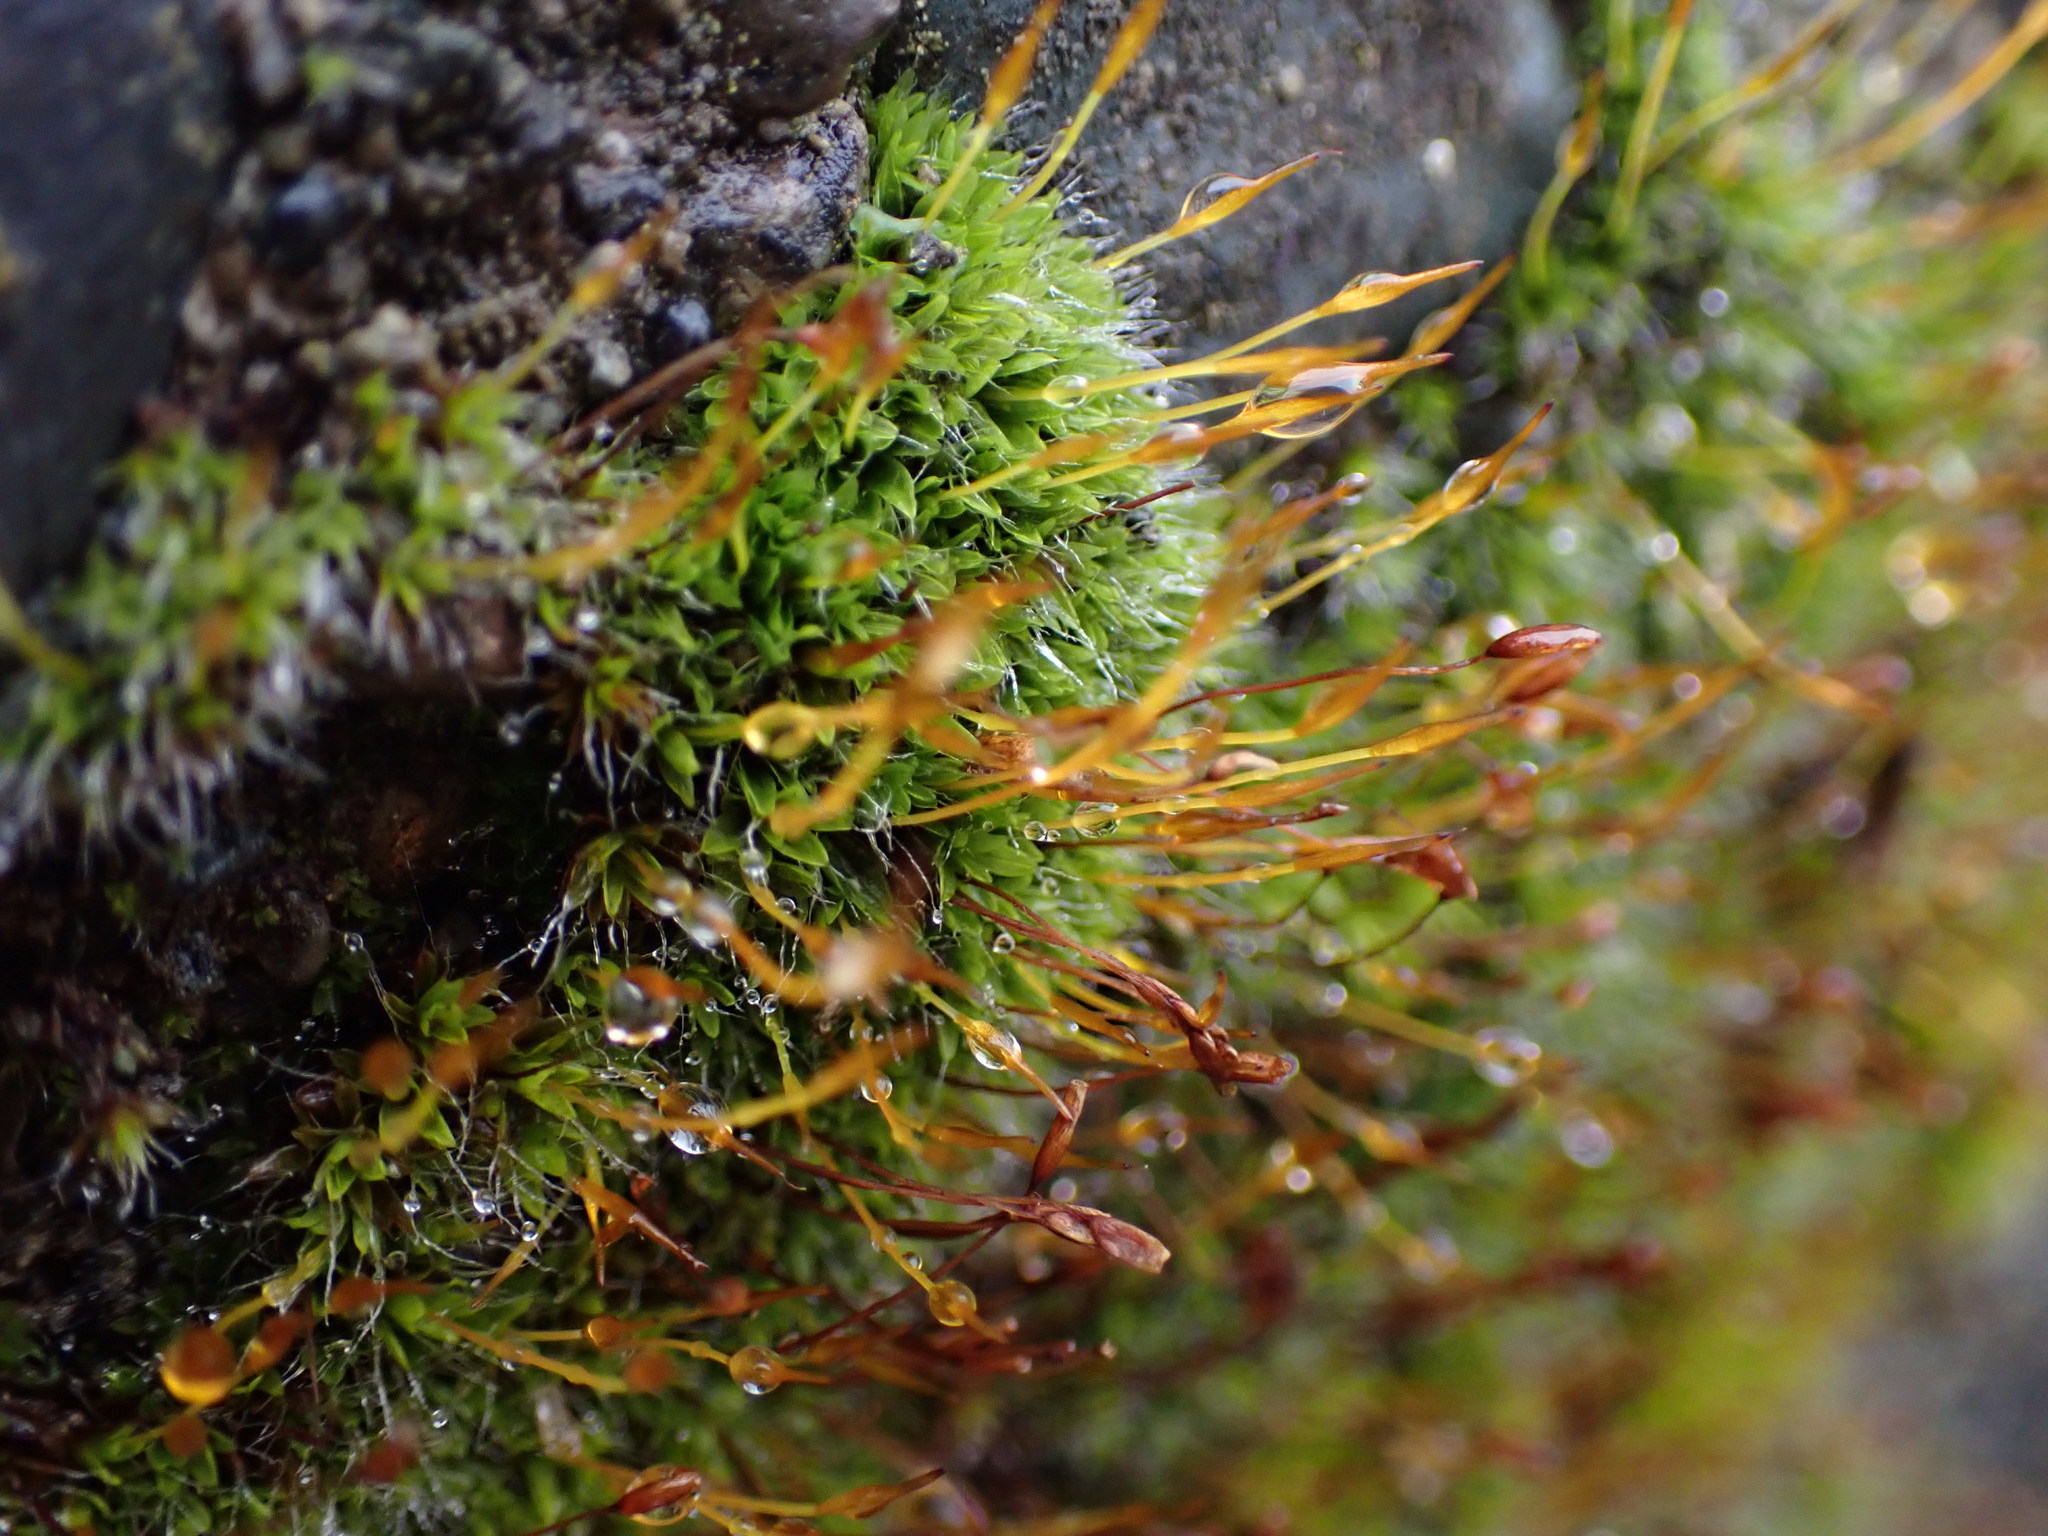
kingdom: Plantae
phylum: Bryophyta
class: Bryopsida
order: Pottiales
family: Pottiaceae
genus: Tortula
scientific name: Tortula muralis
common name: Wall screw-moss
